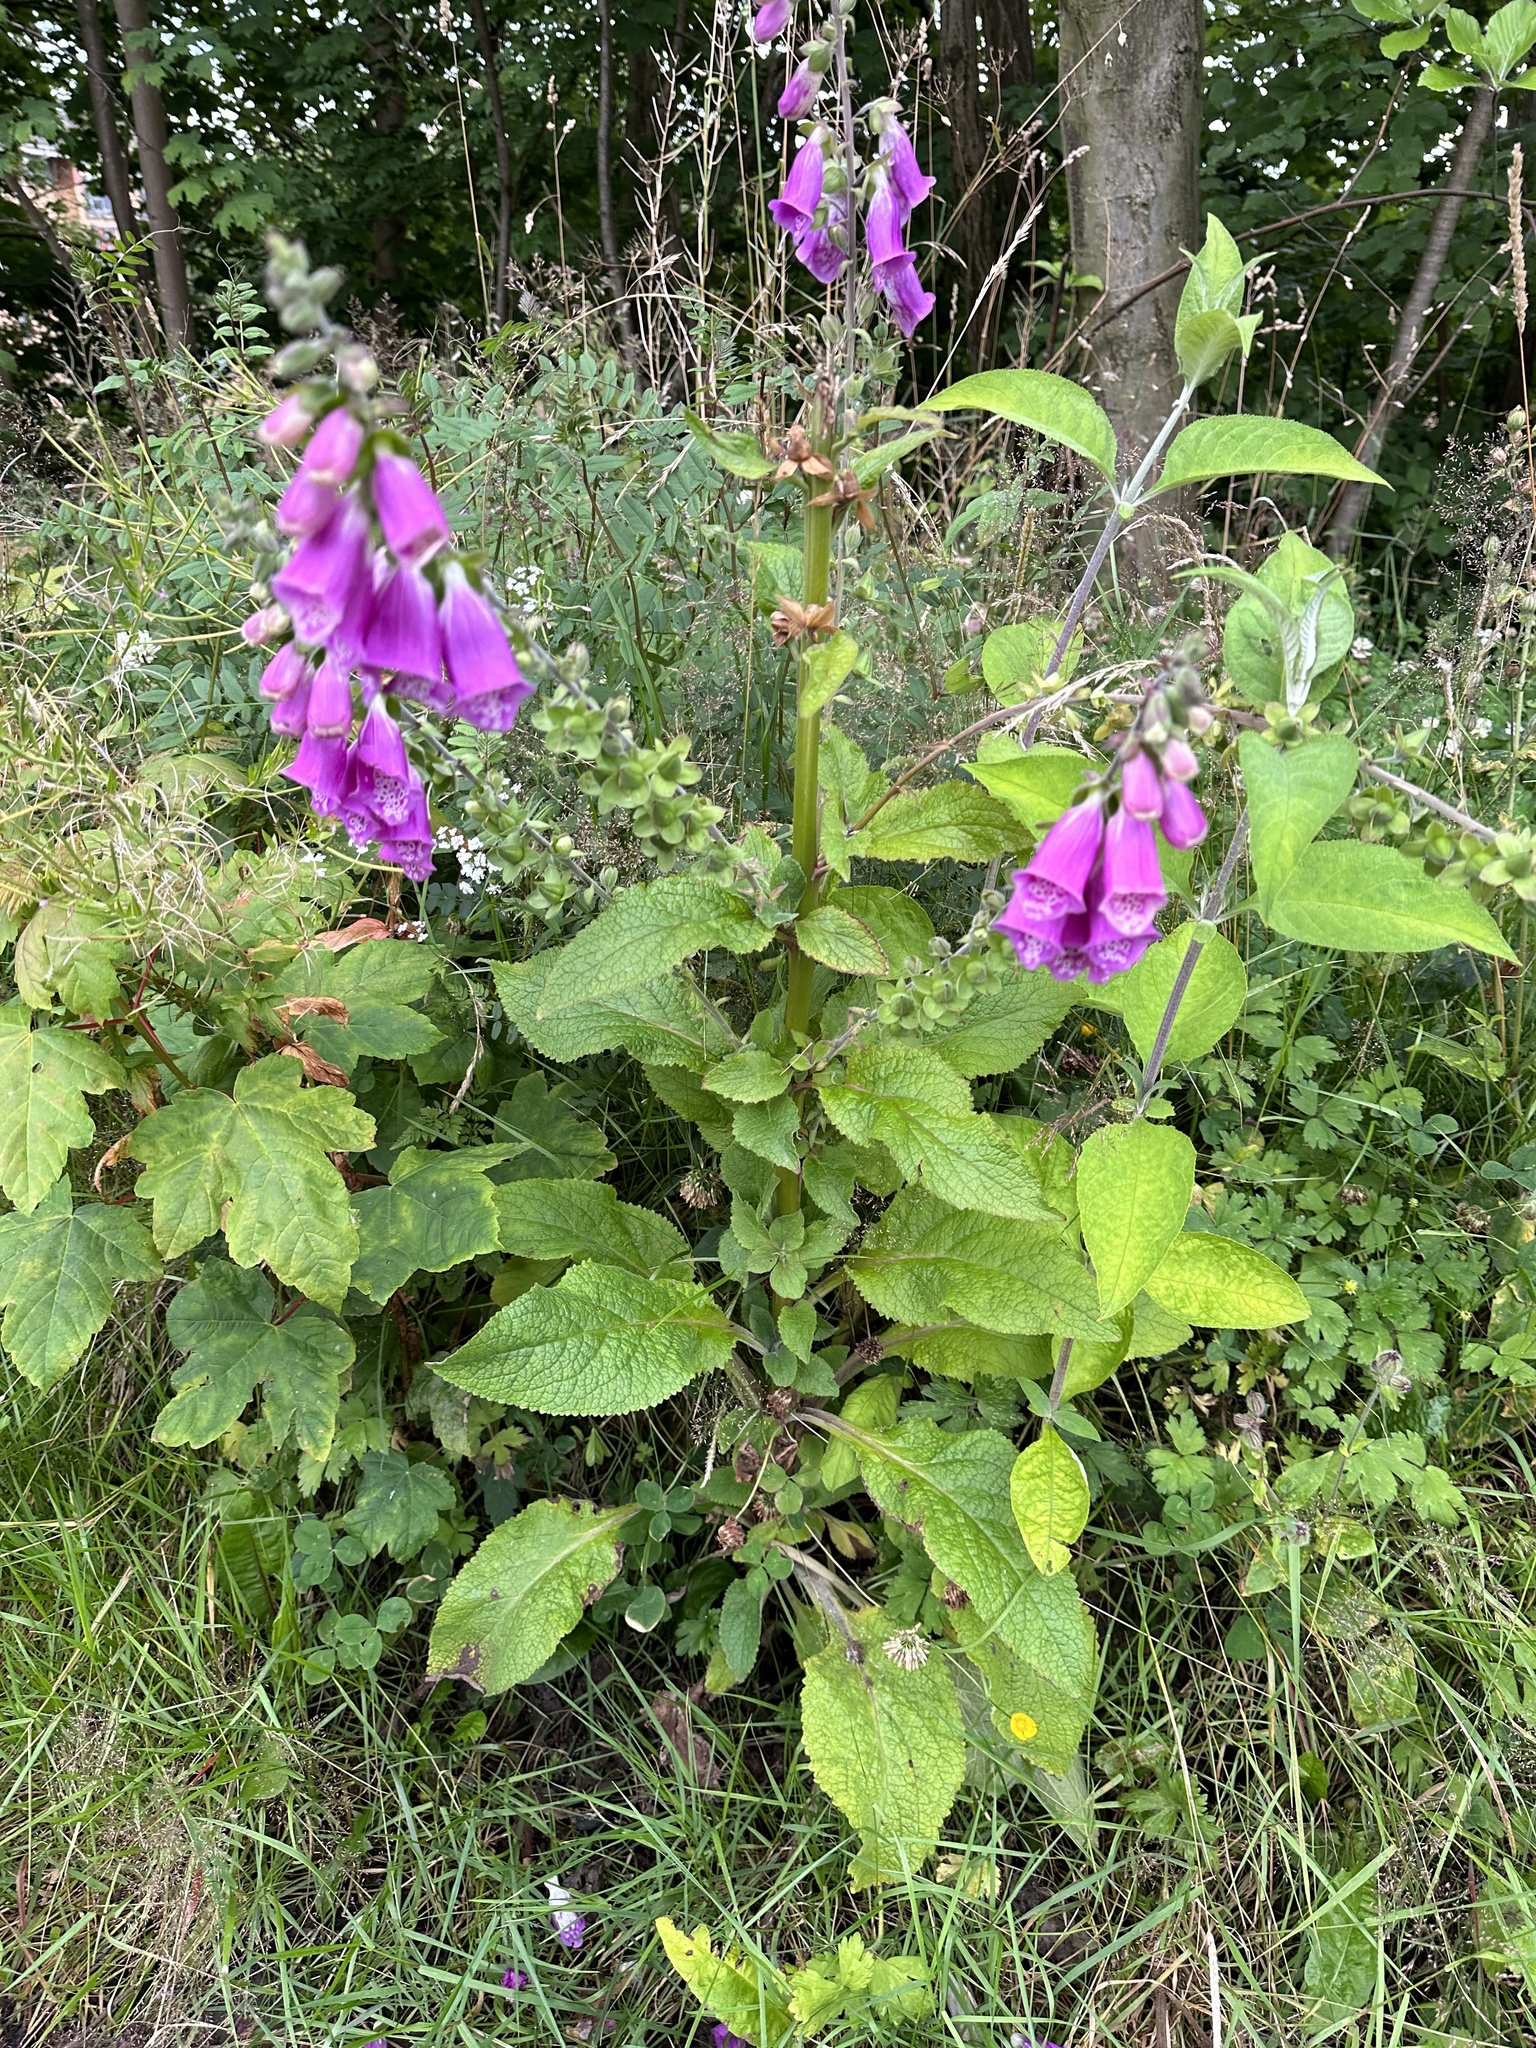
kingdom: Plantae
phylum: Tracheophyta
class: Magnoliopsida
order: Lamiales
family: Plantaginaceae
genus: Digitalis
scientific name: Digitalis purpurea
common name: Foxglove
